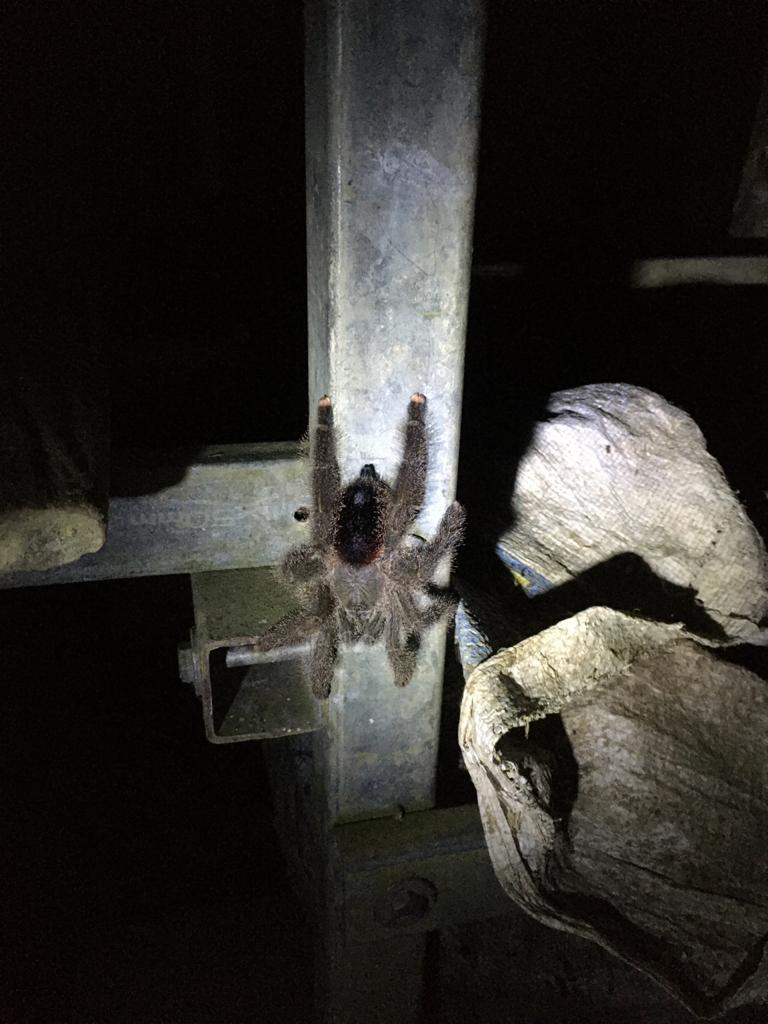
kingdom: Animalia
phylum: Arthropoda
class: Arachnida
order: Araneae
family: Theraphosidae
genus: Avicularia
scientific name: Avicularia juruensis
